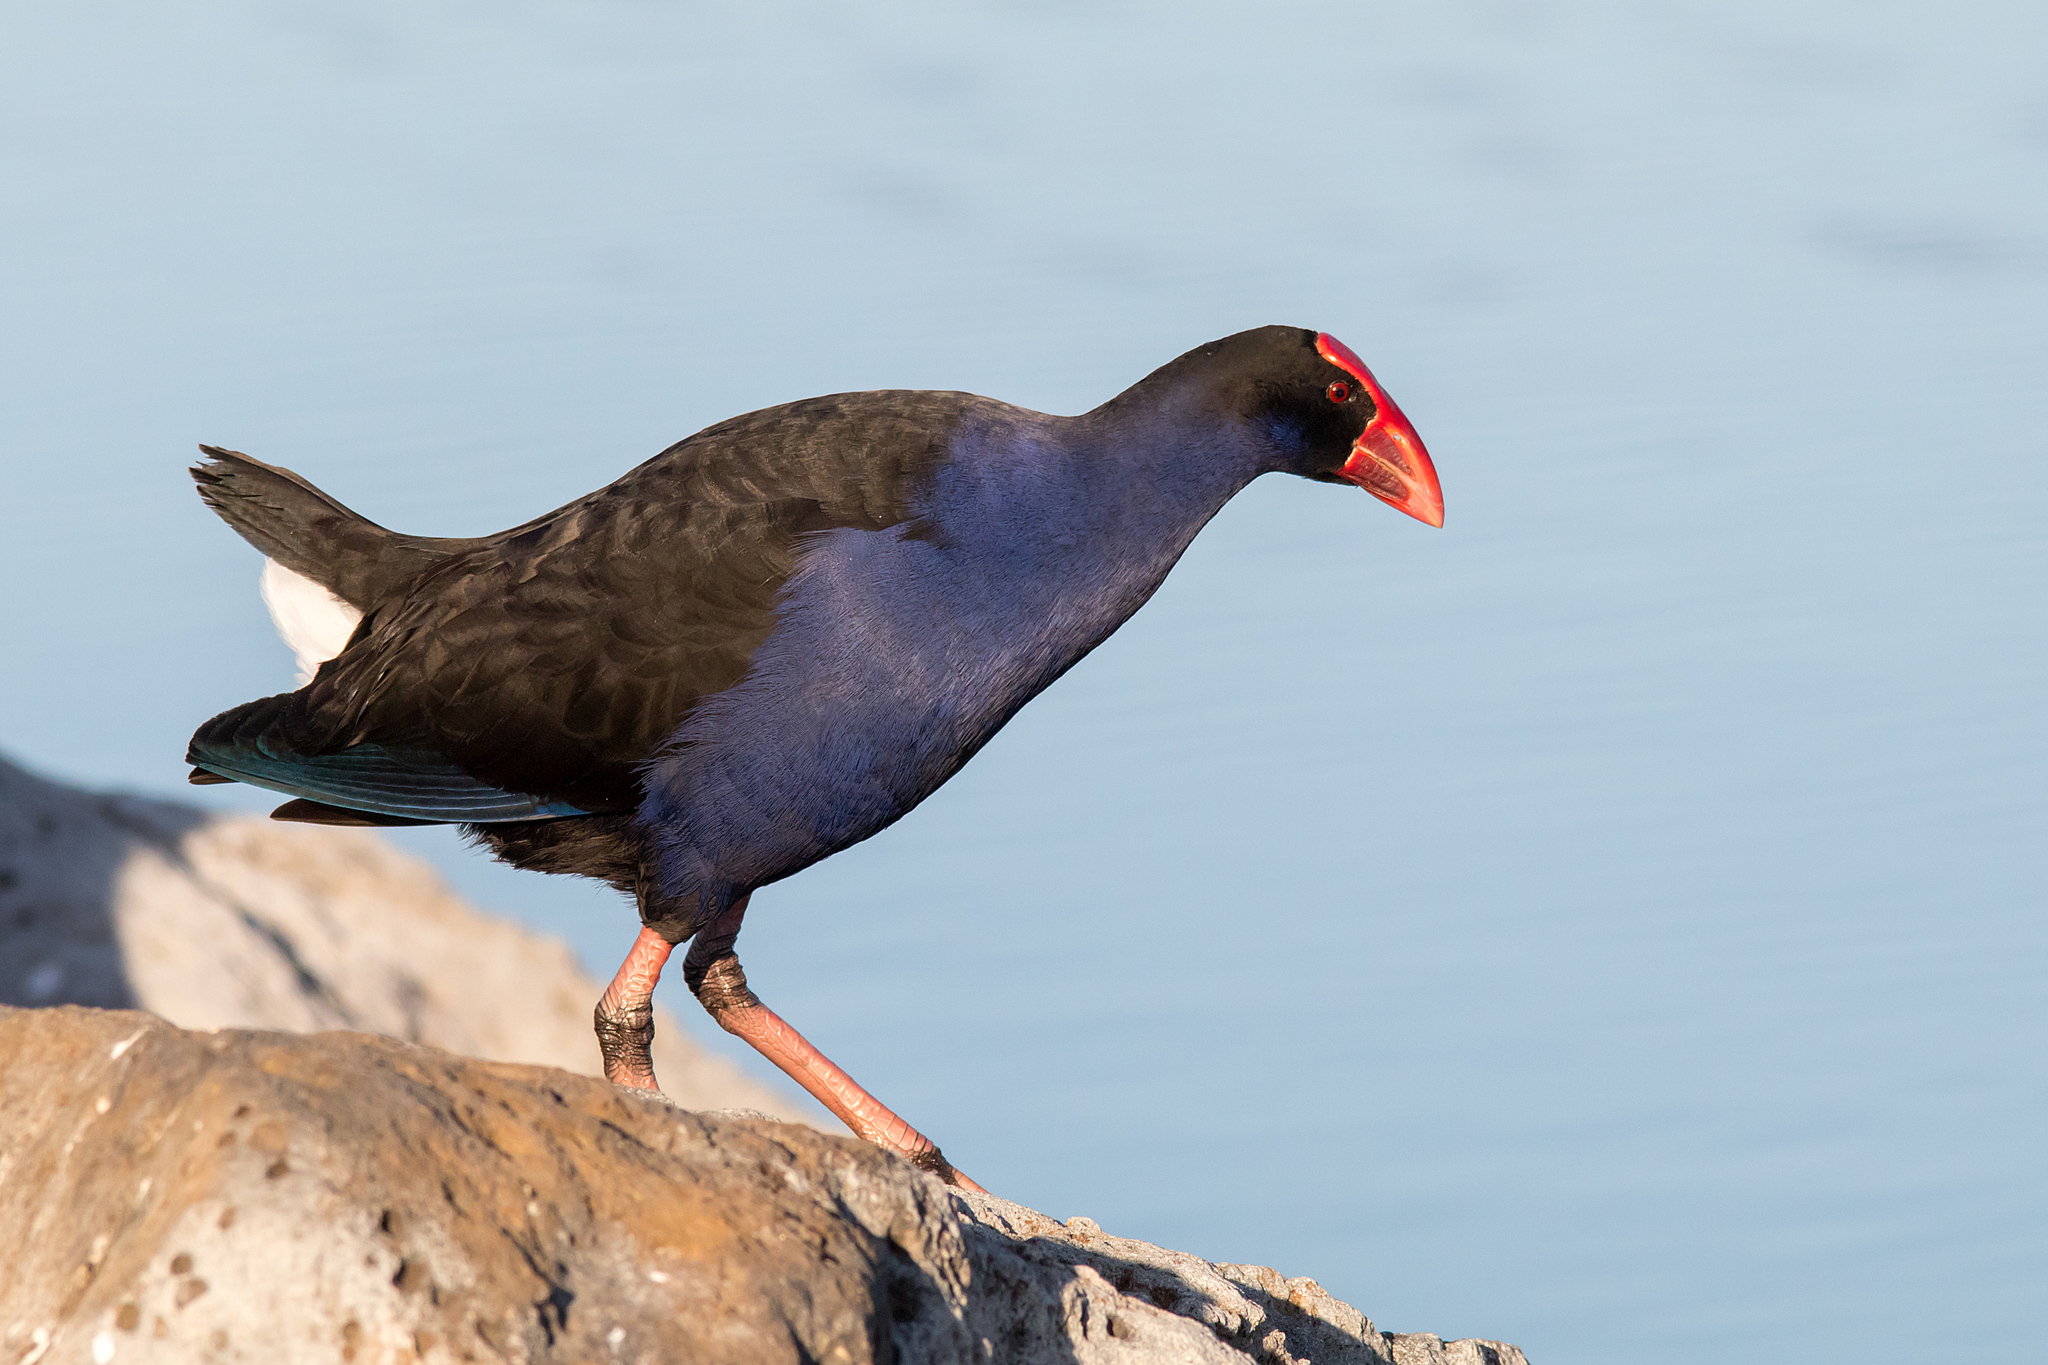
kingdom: Animalia
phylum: Chordata
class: Aves
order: Gruiformes
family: Rallidae
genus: Porphyrio
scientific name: Porphyrio melanotus
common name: Australasian swamphen
